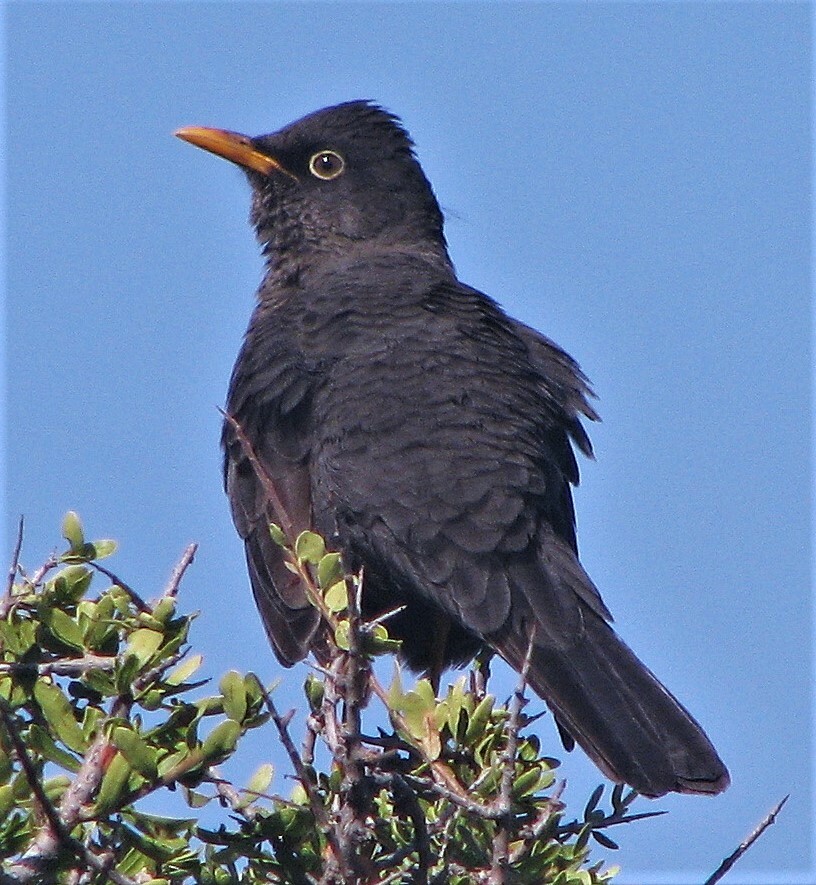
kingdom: Animalia
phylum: Chordata
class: Aves
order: Passeriformes
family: Turdidae
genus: Turdus
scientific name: Turdus chiguanco
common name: Chiguanco thrush
